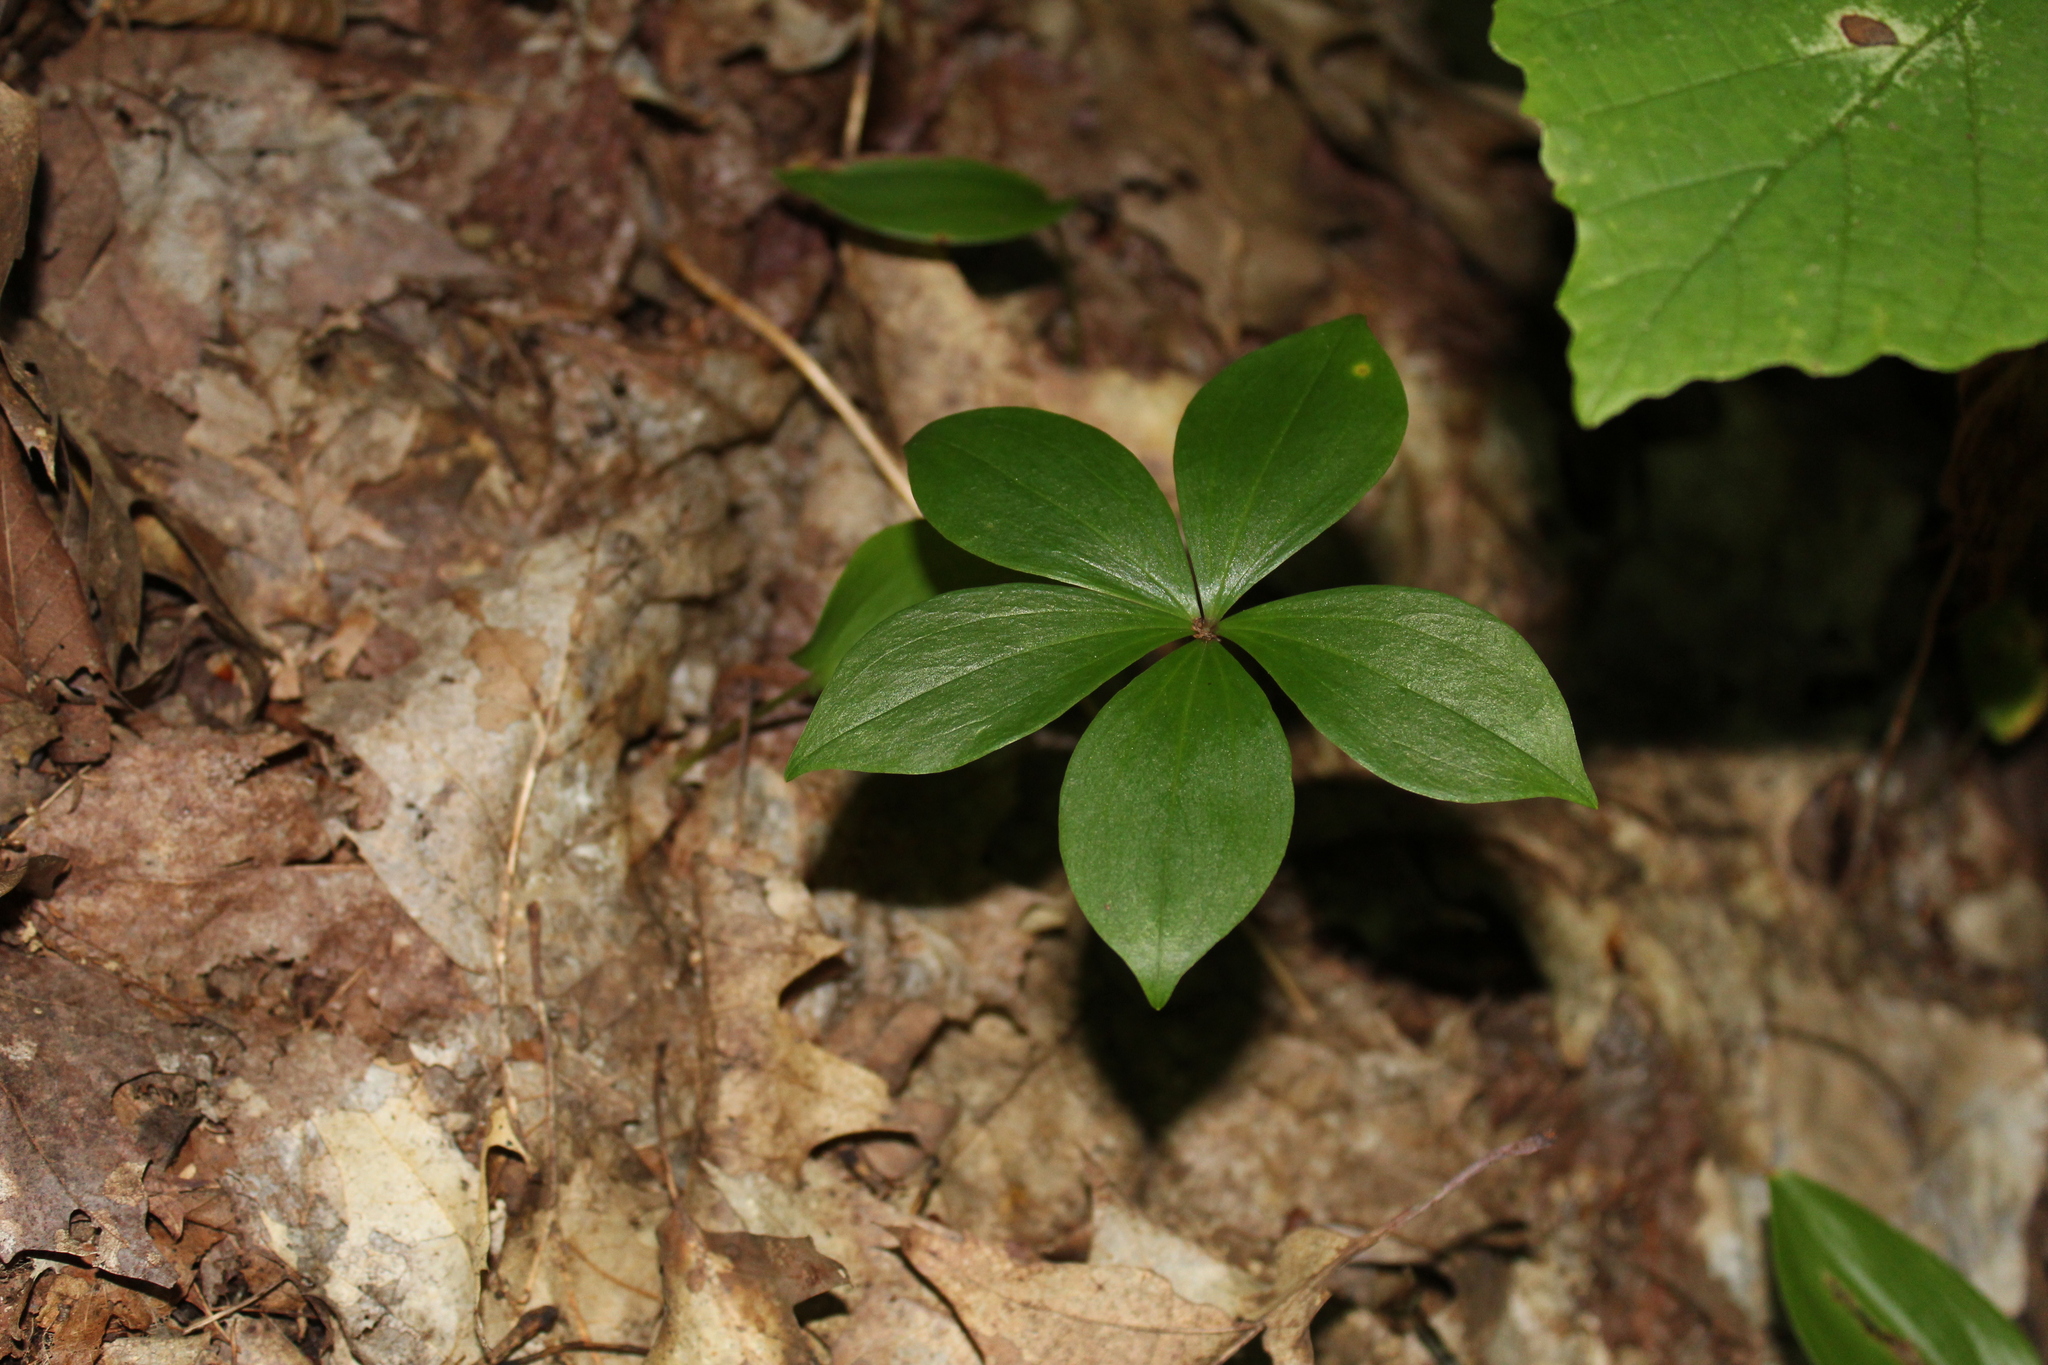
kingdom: Plantae
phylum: Tracheophyta
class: Liliopsida
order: Liliales
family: Liliaceae
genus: Medeola
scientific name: Medeola virginiana
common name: Indian cucumber-root
